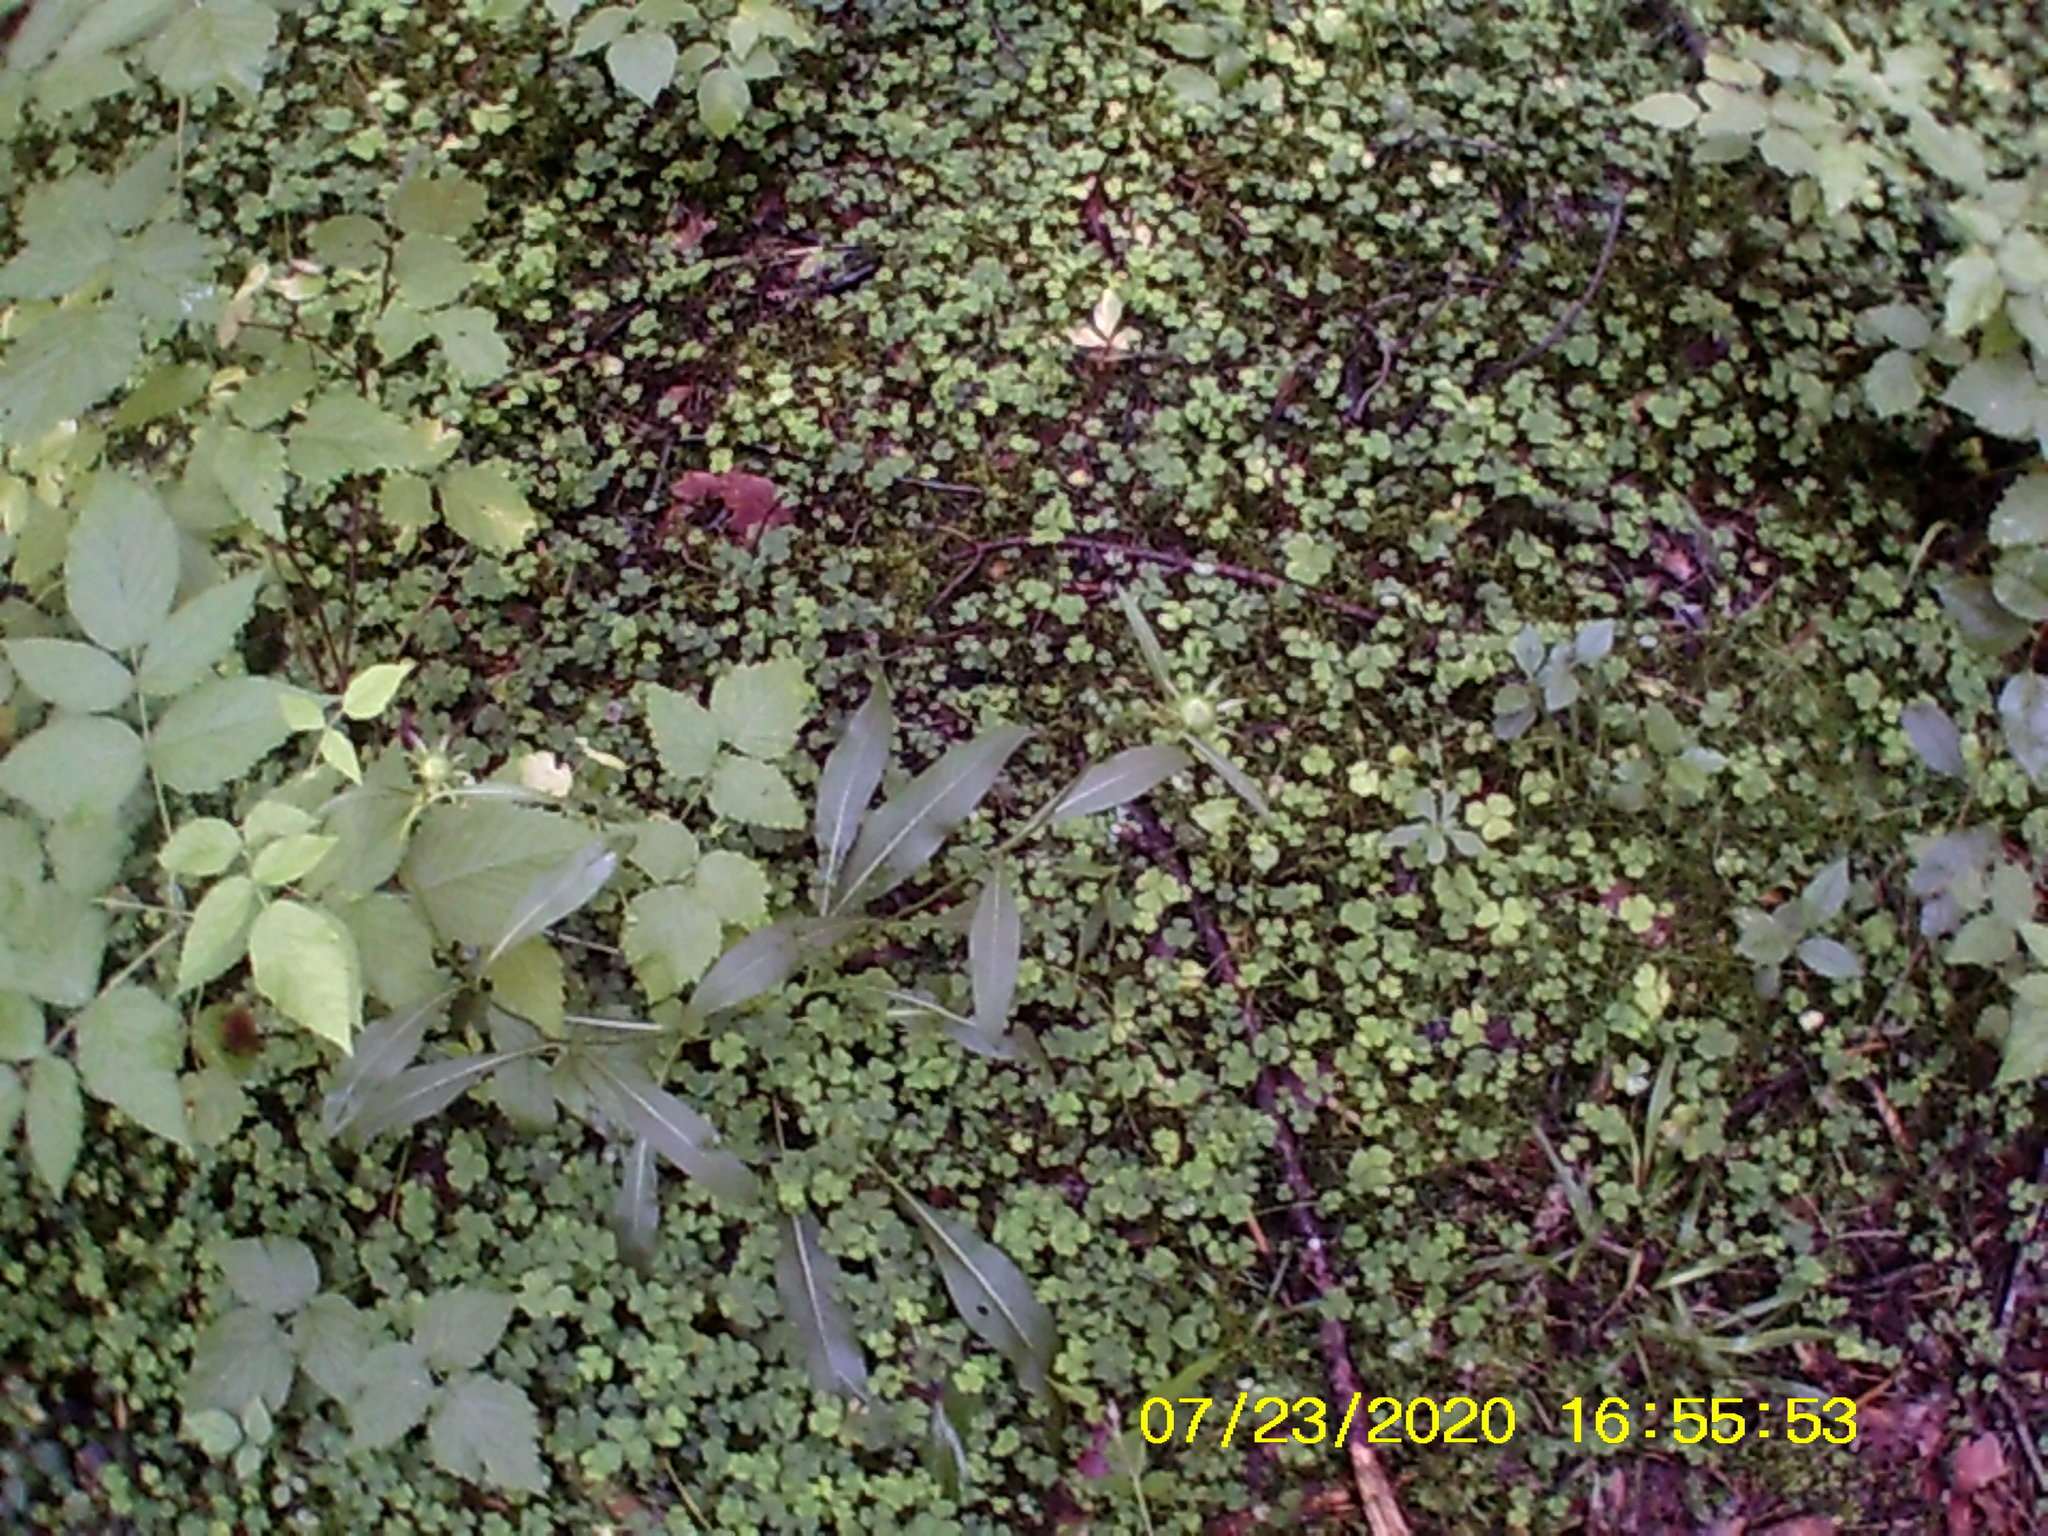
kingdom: Plantae
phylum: Tracheophyta
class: Magnoliopsida
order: Oxalidales
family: Oxalidaceae
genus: Oxalis
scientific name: Oxalis acetosella
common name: Wood-sorrel
